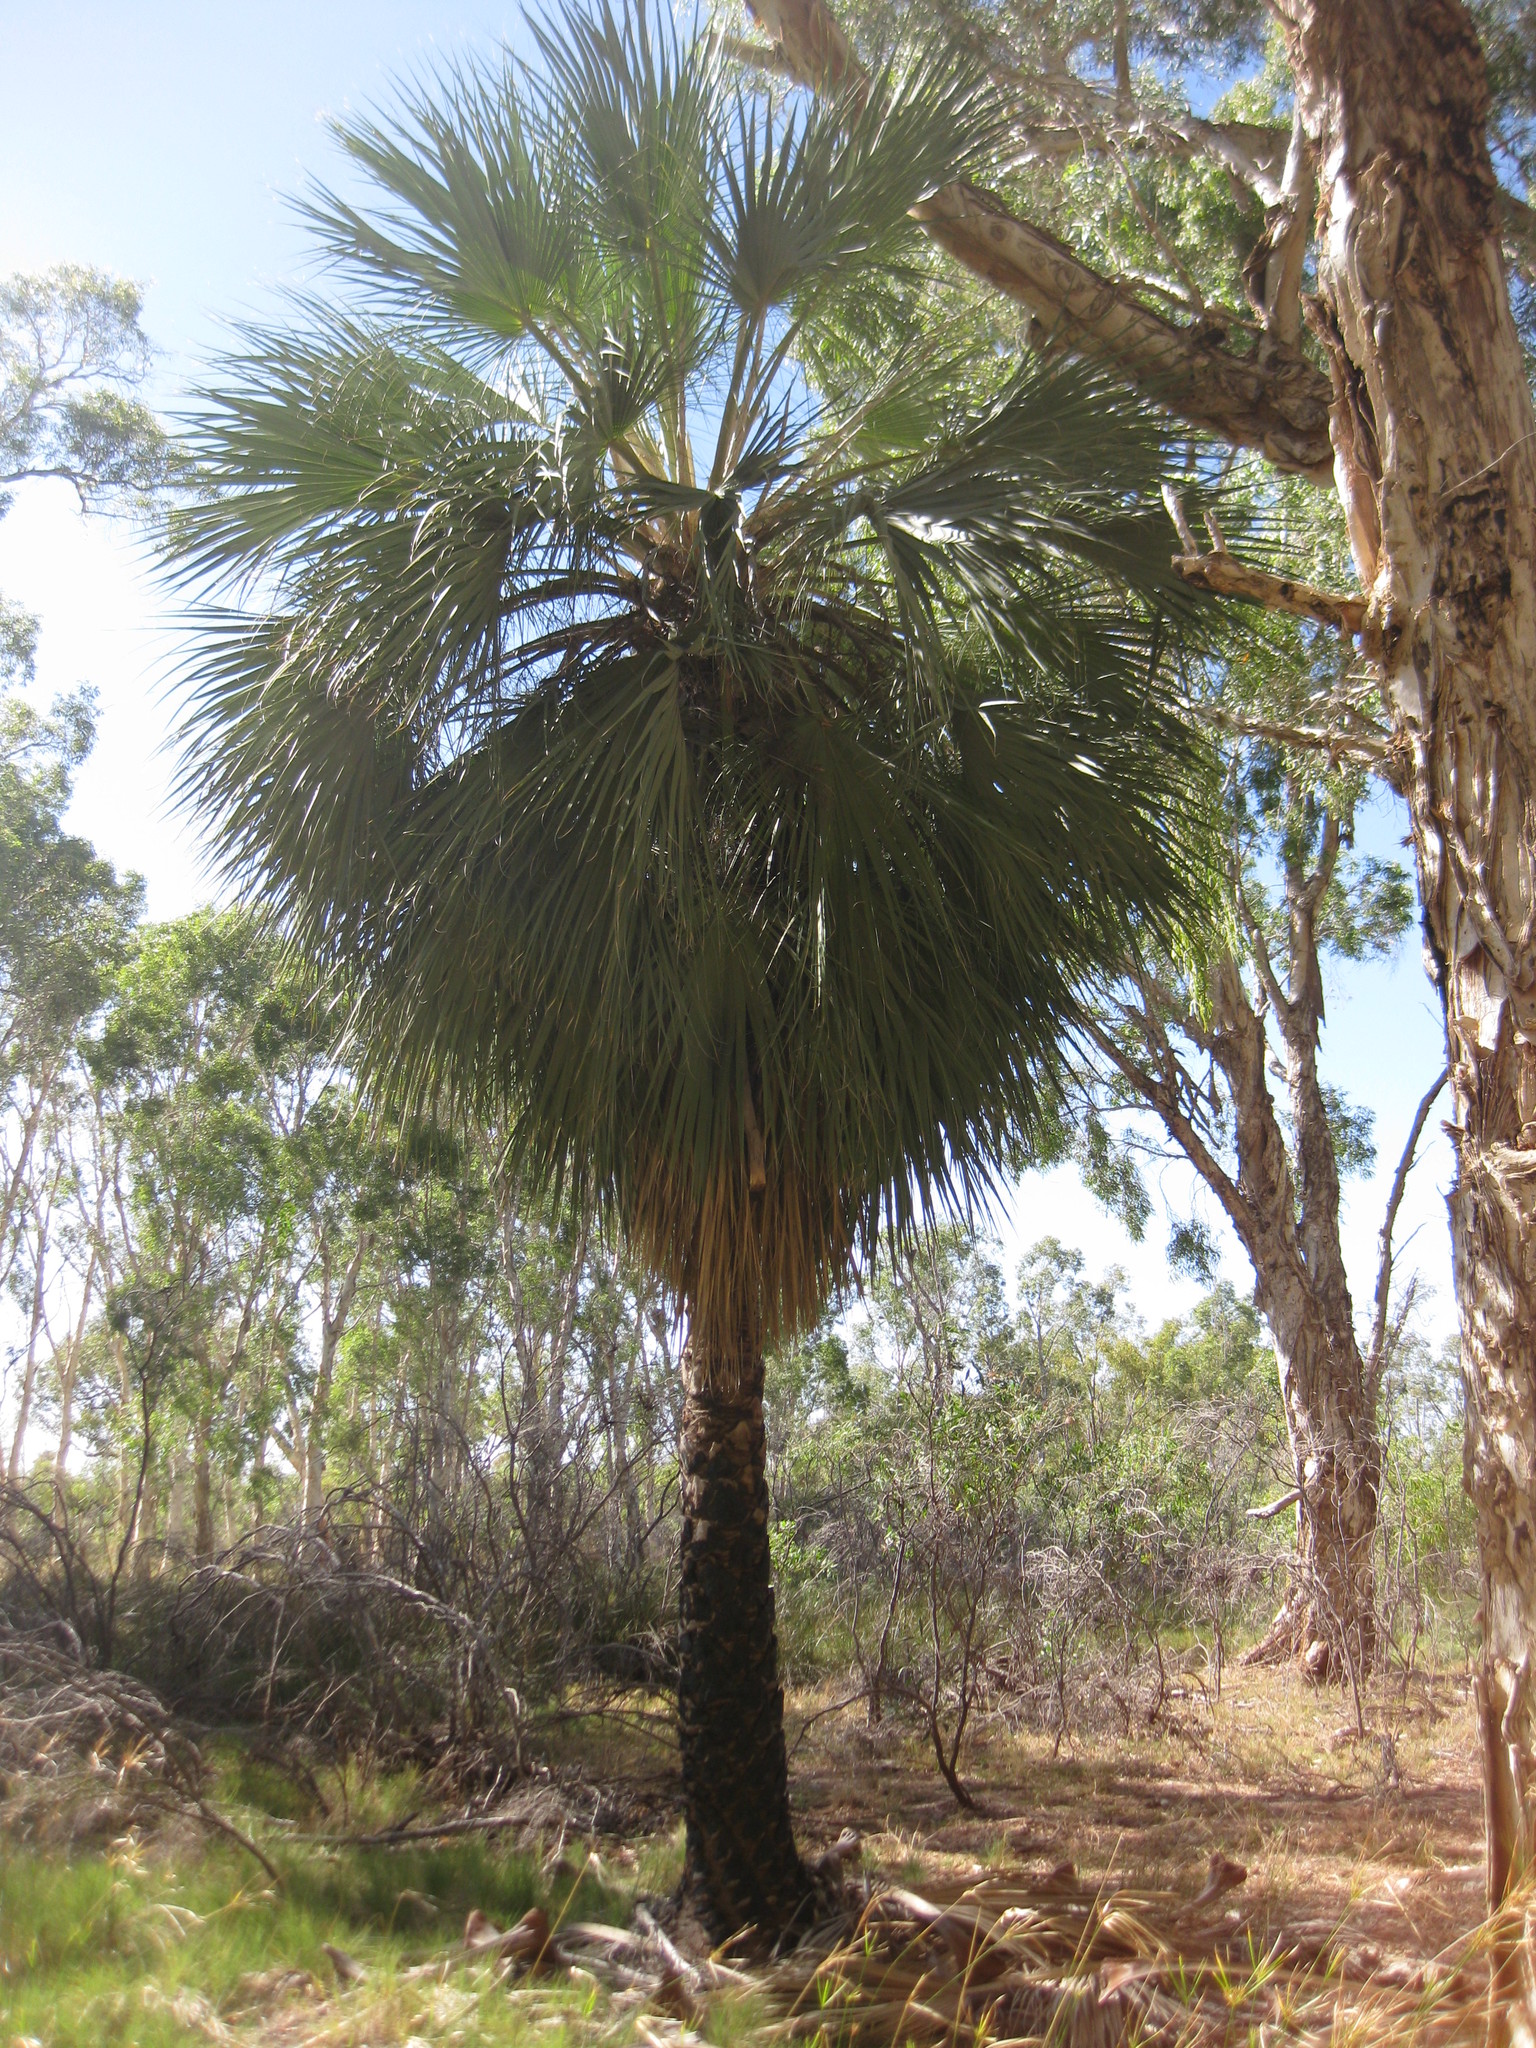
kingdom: Plantae
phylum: Tracheophyta
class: Liliopsida
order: Arecales
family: Arecaceae
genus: Livistona
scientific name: Livistona alfredii
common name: Millstream palm
